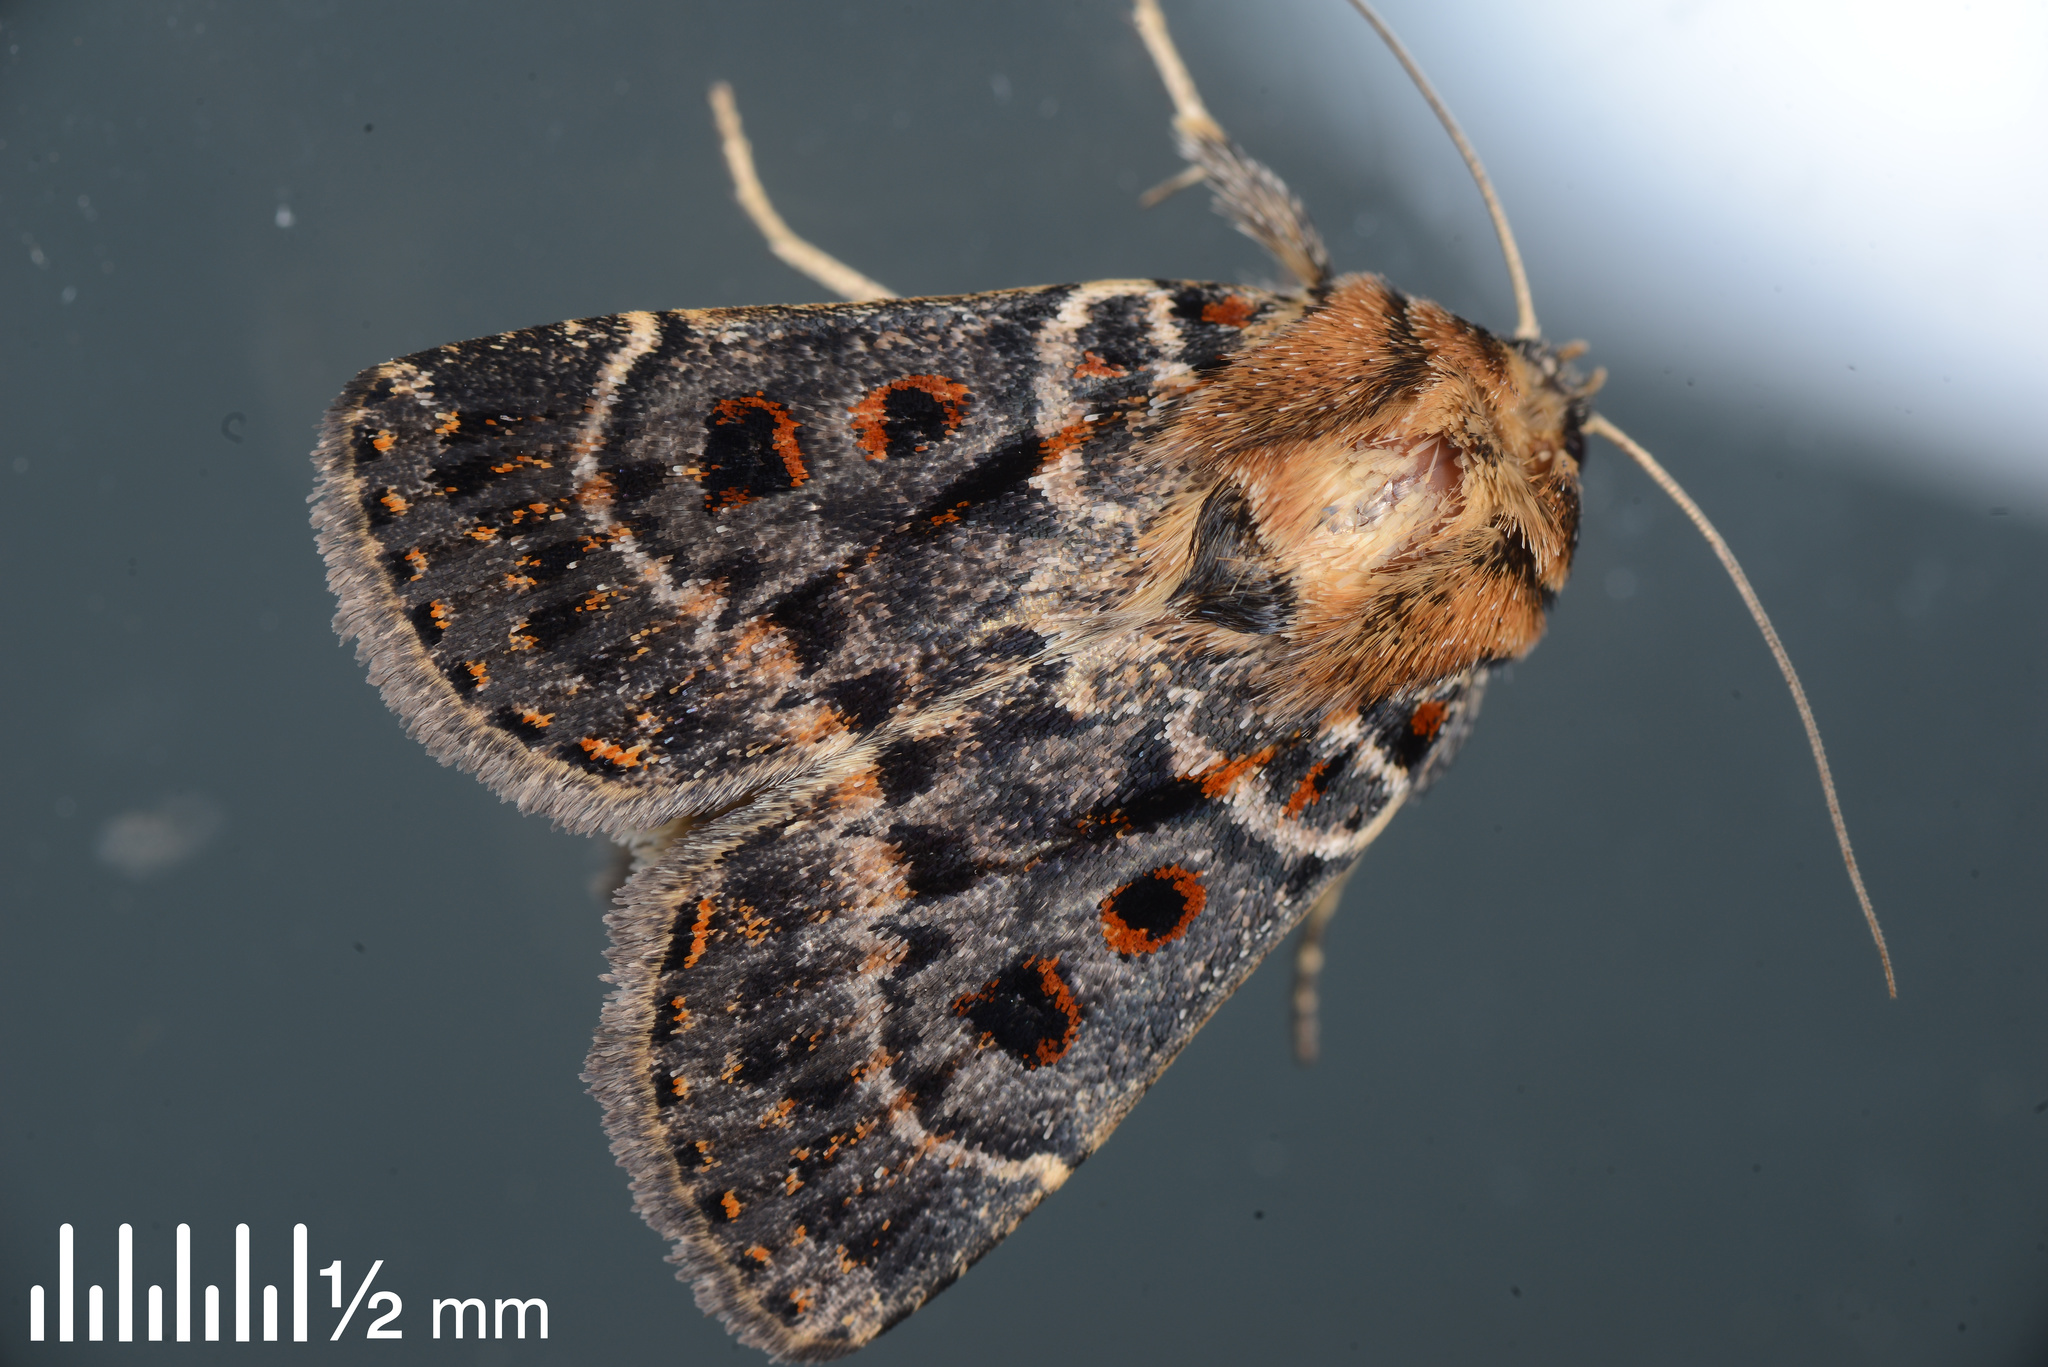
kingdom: Animalia
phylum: Arthropoda
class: Insecta
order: Lepidoptera
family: Noctuidae
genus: Proteuxoa
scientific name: Proteuxoa sanguinipuncta
